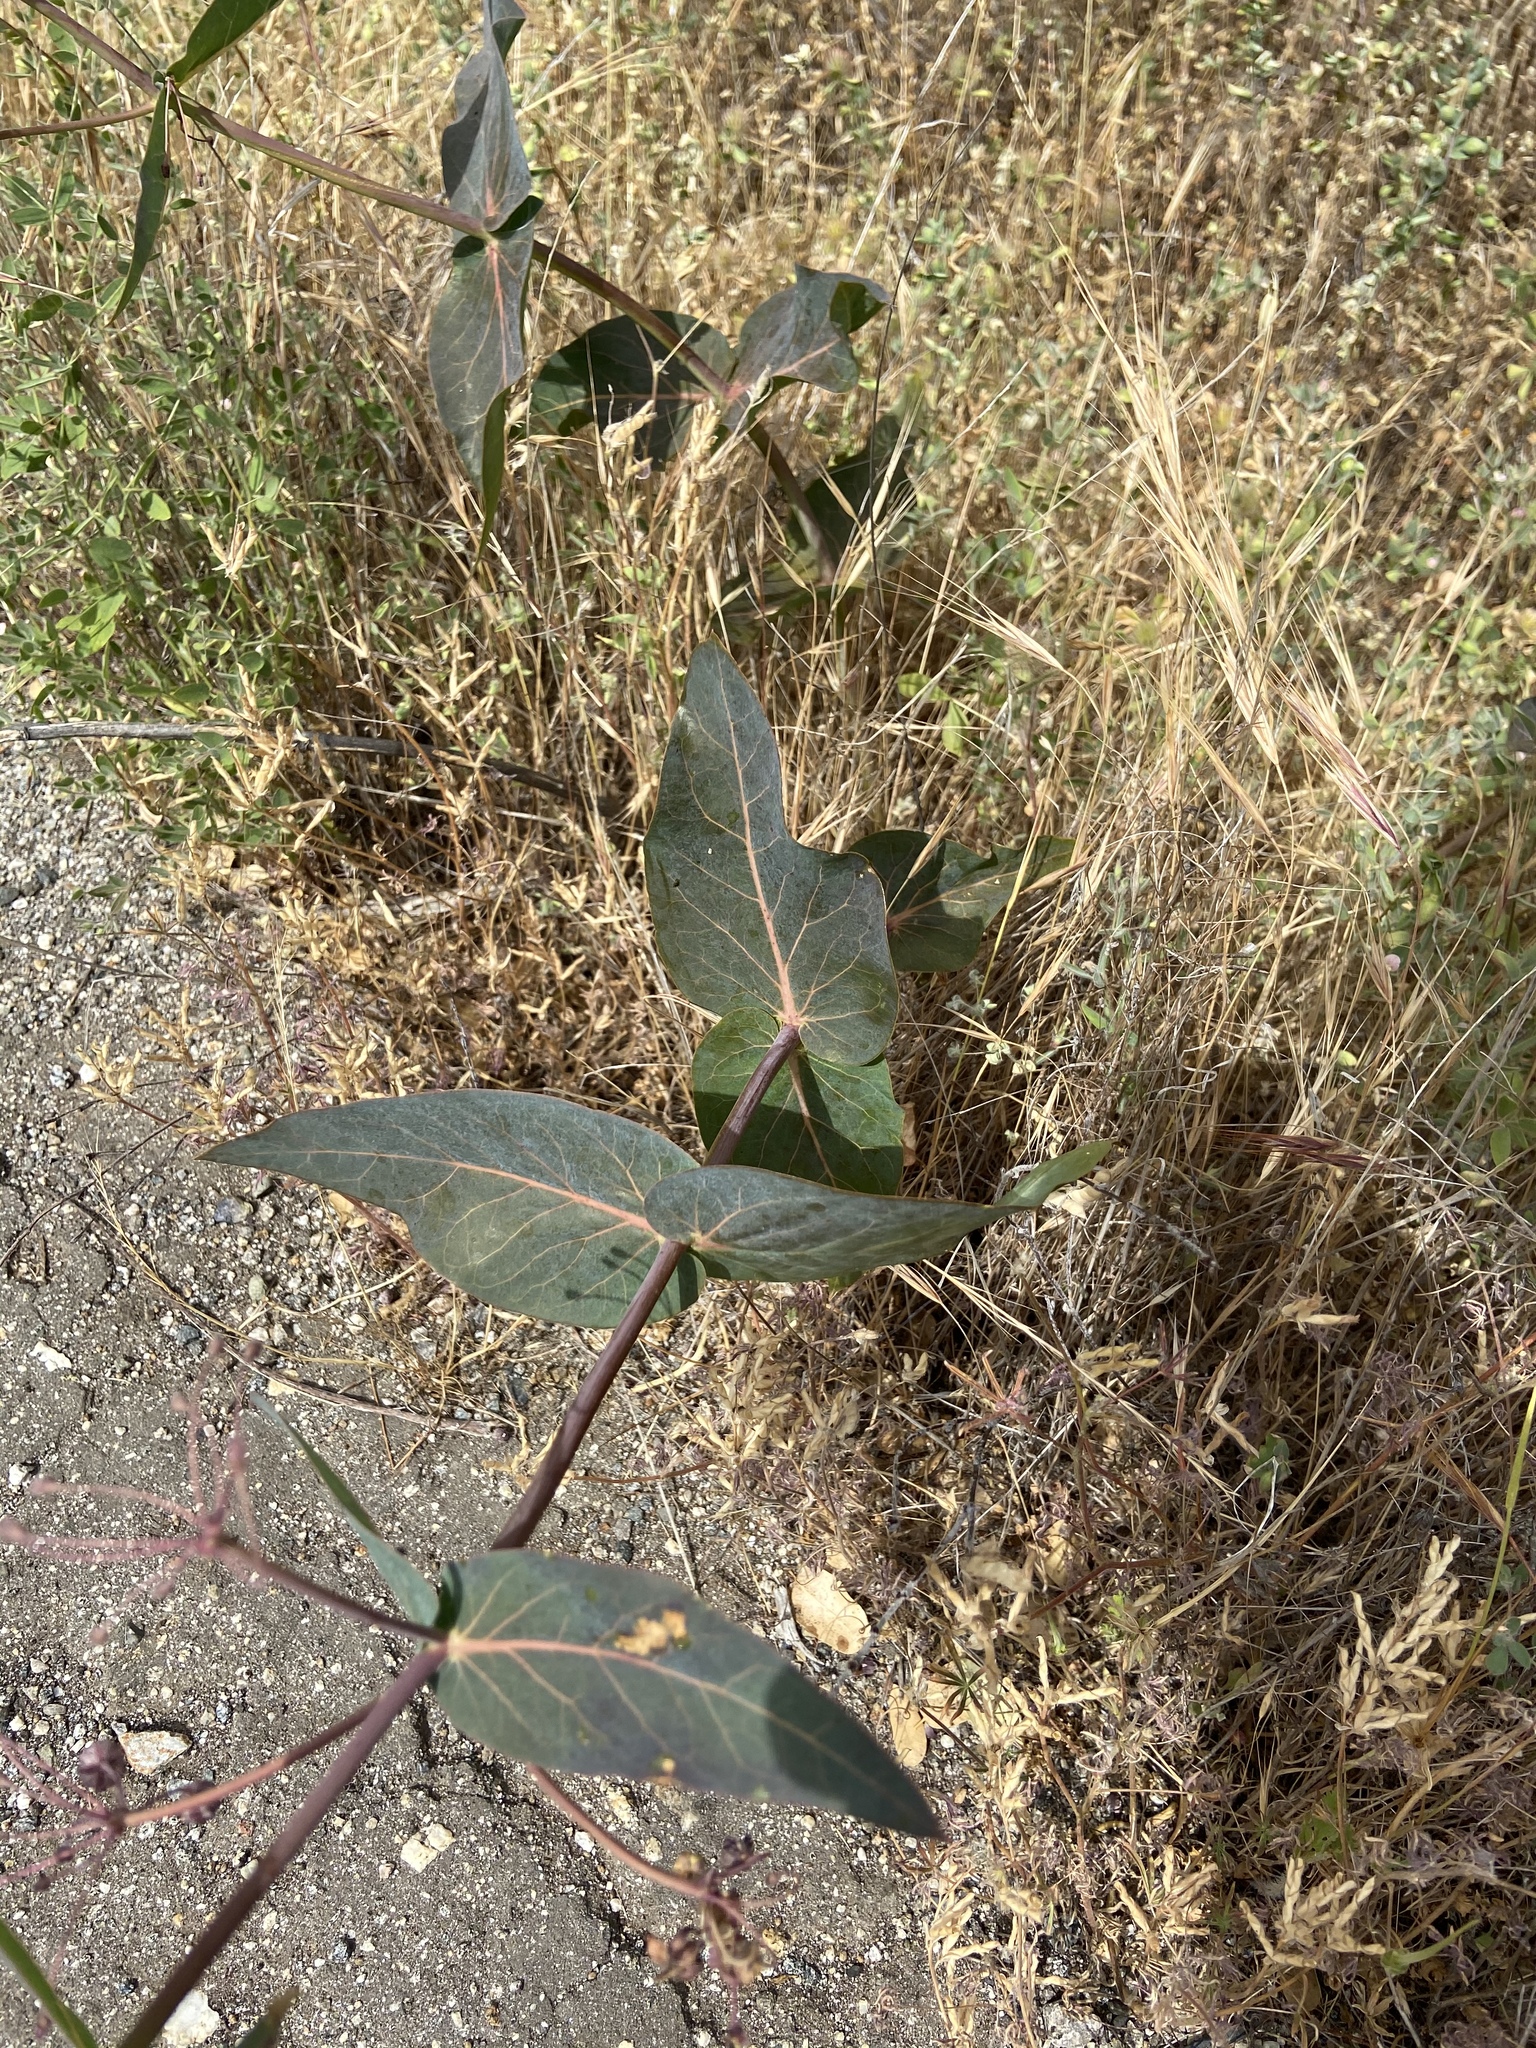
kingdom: Plantae
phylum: Tracheophyta
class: Magnoliopsida
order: Gentianales
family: Apocynaceae
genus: Asclepias
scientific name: Asclepias cordifolia
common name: Purple milkweed
